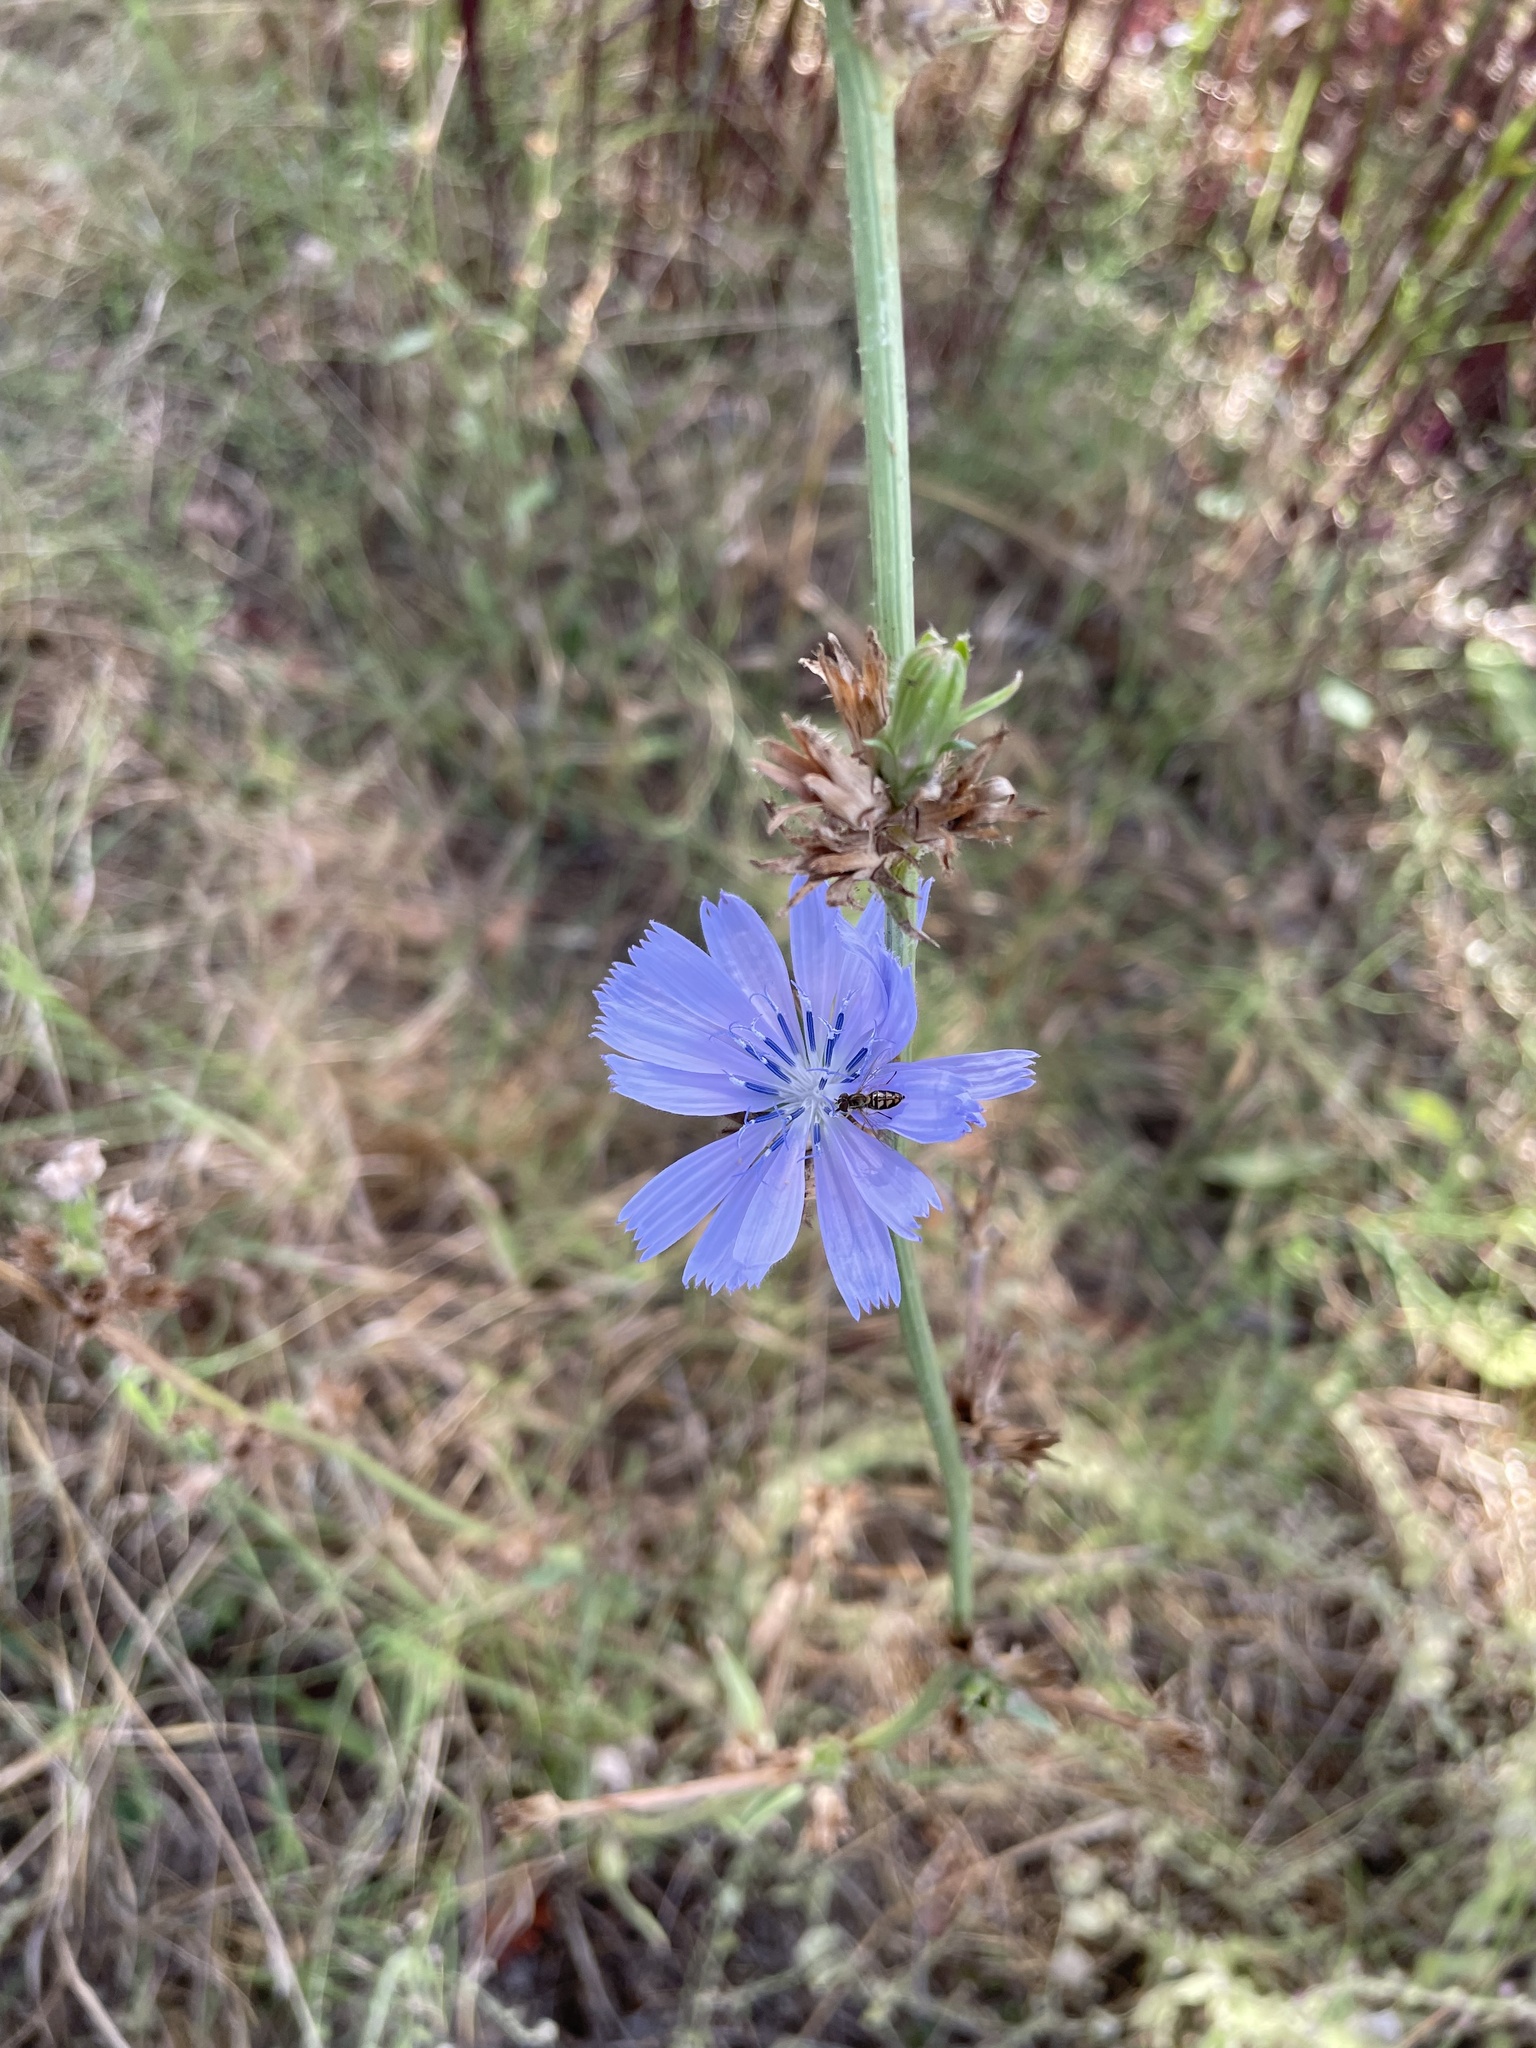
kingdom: Plantae
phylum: Tracheophyta
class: Magnoliopsida
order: Asterales
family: Asteraceae
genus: Cichorium
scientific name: Cichorium intybus
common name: Chicory
